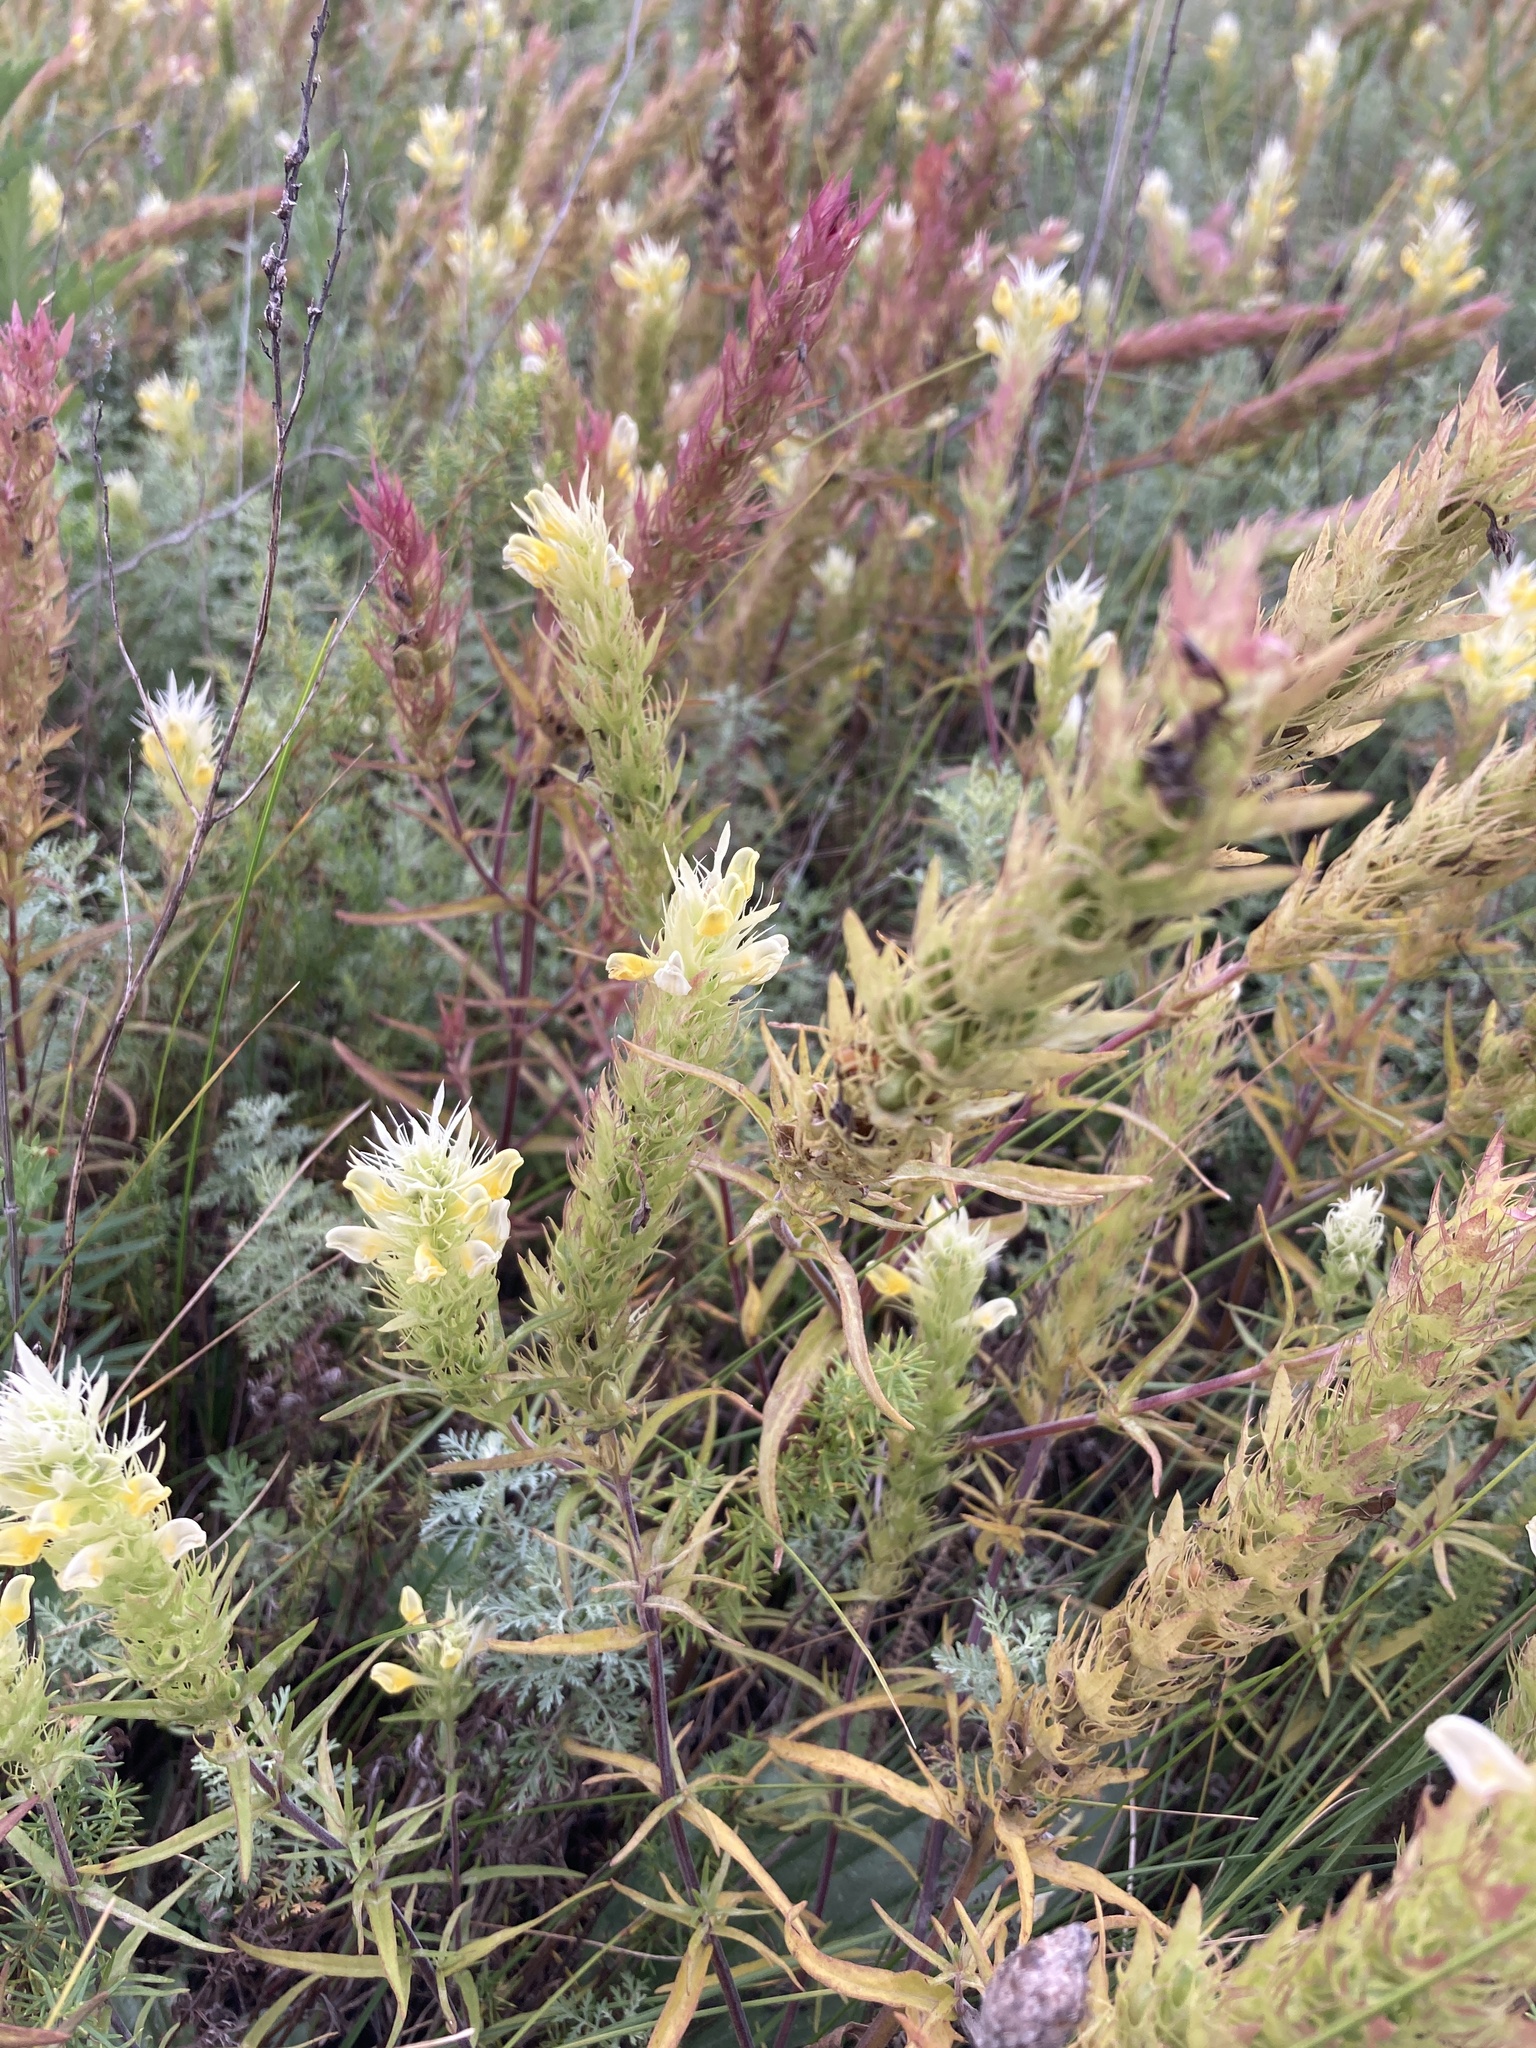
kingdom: Plantae
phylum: Tracheophyta
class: Magnoliopsida
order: Lamiales
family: Orobanchaceae
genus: Melampyrum
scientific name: Melampyrum arvense
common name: Field cow-wheat
